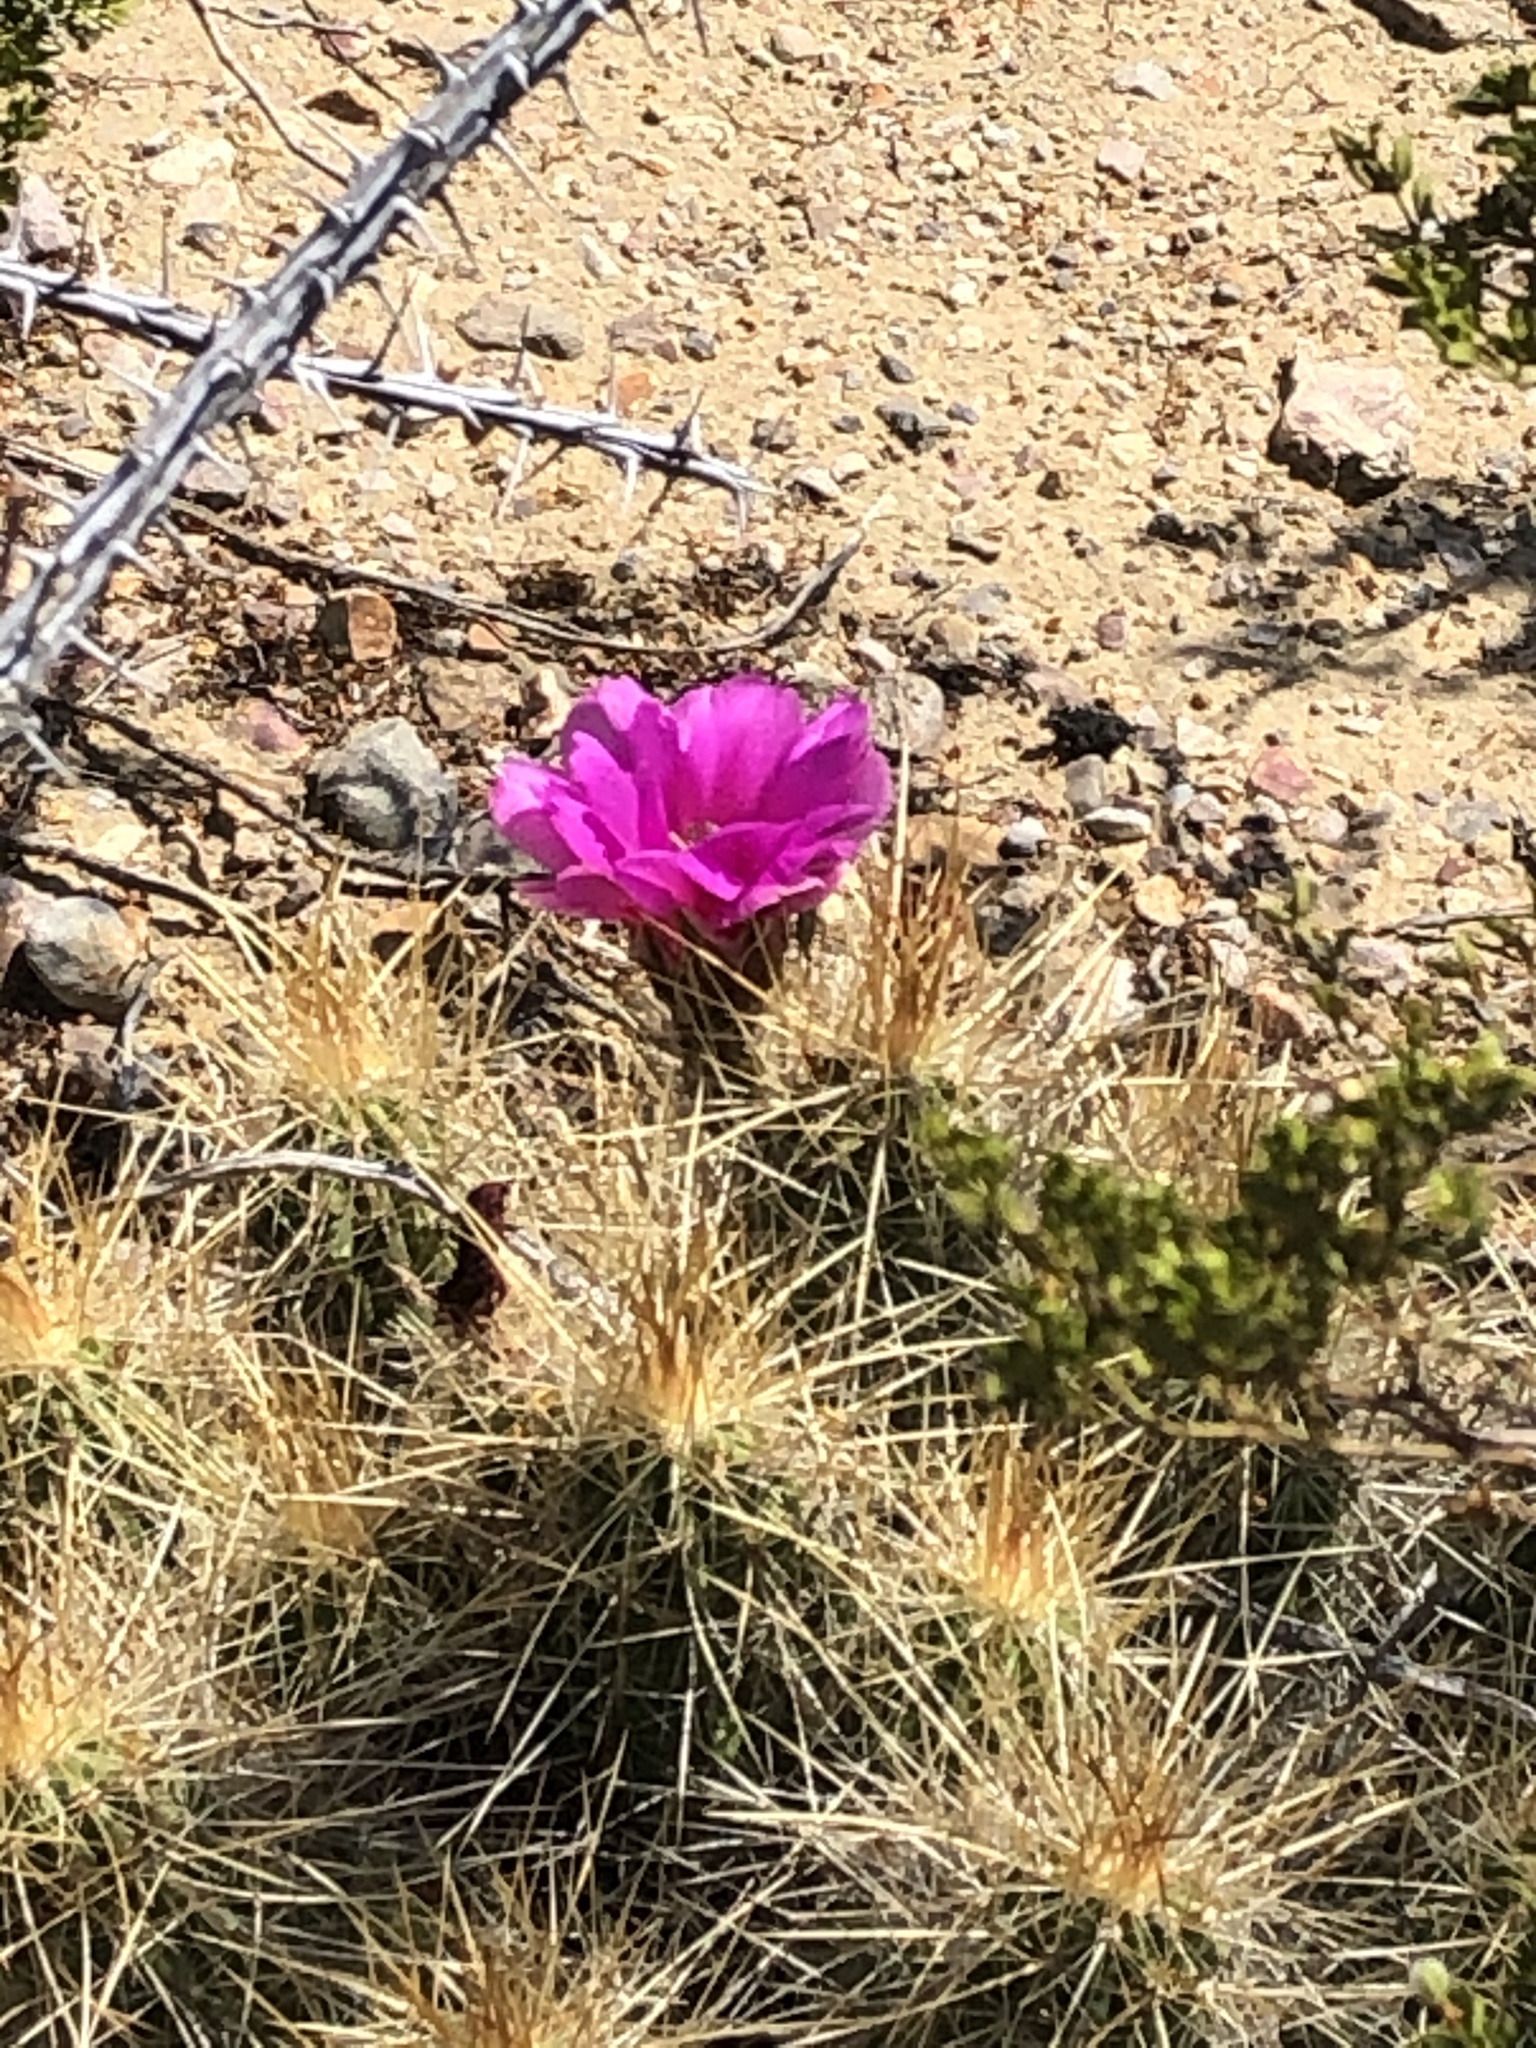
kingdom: Plantae
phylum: Tracheophyta
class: Magnoliopsida
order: Caryophyllales
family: Cactaceae
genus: Echinocereus
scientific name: Echinocereus stramineus
